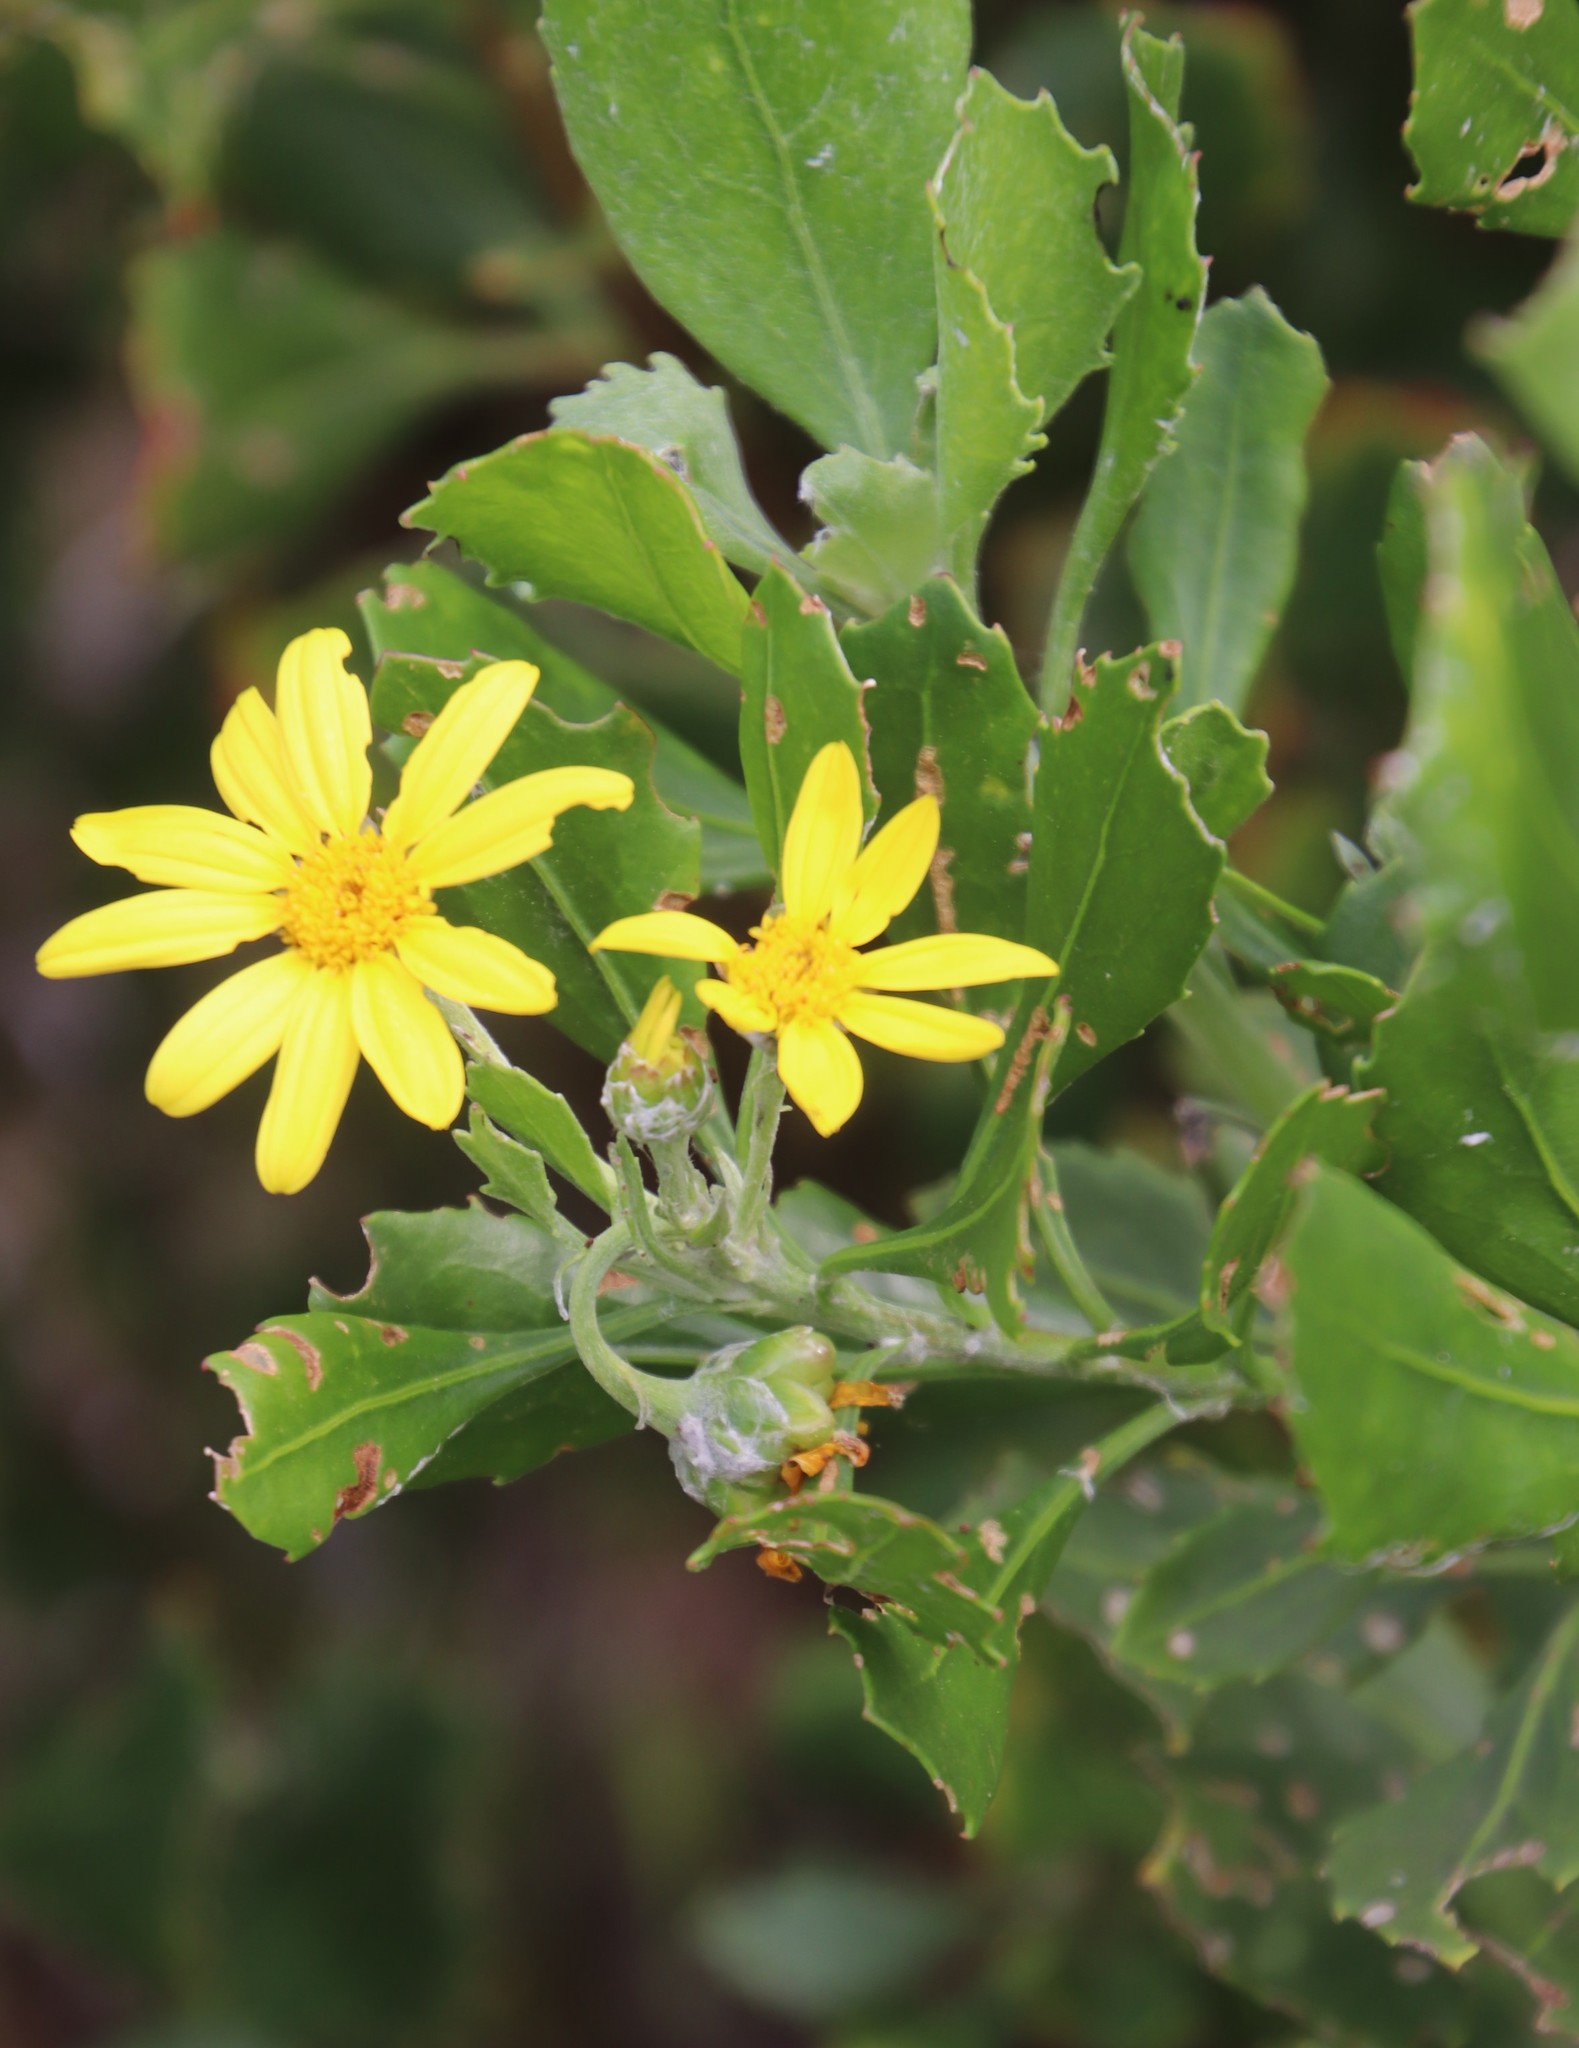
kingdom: Plantae
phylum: Tracheophyta
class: Magnoliopsida
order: Asterales
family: Asteraceae
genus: Osteospermum
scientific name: Osteospermum moniliferum
